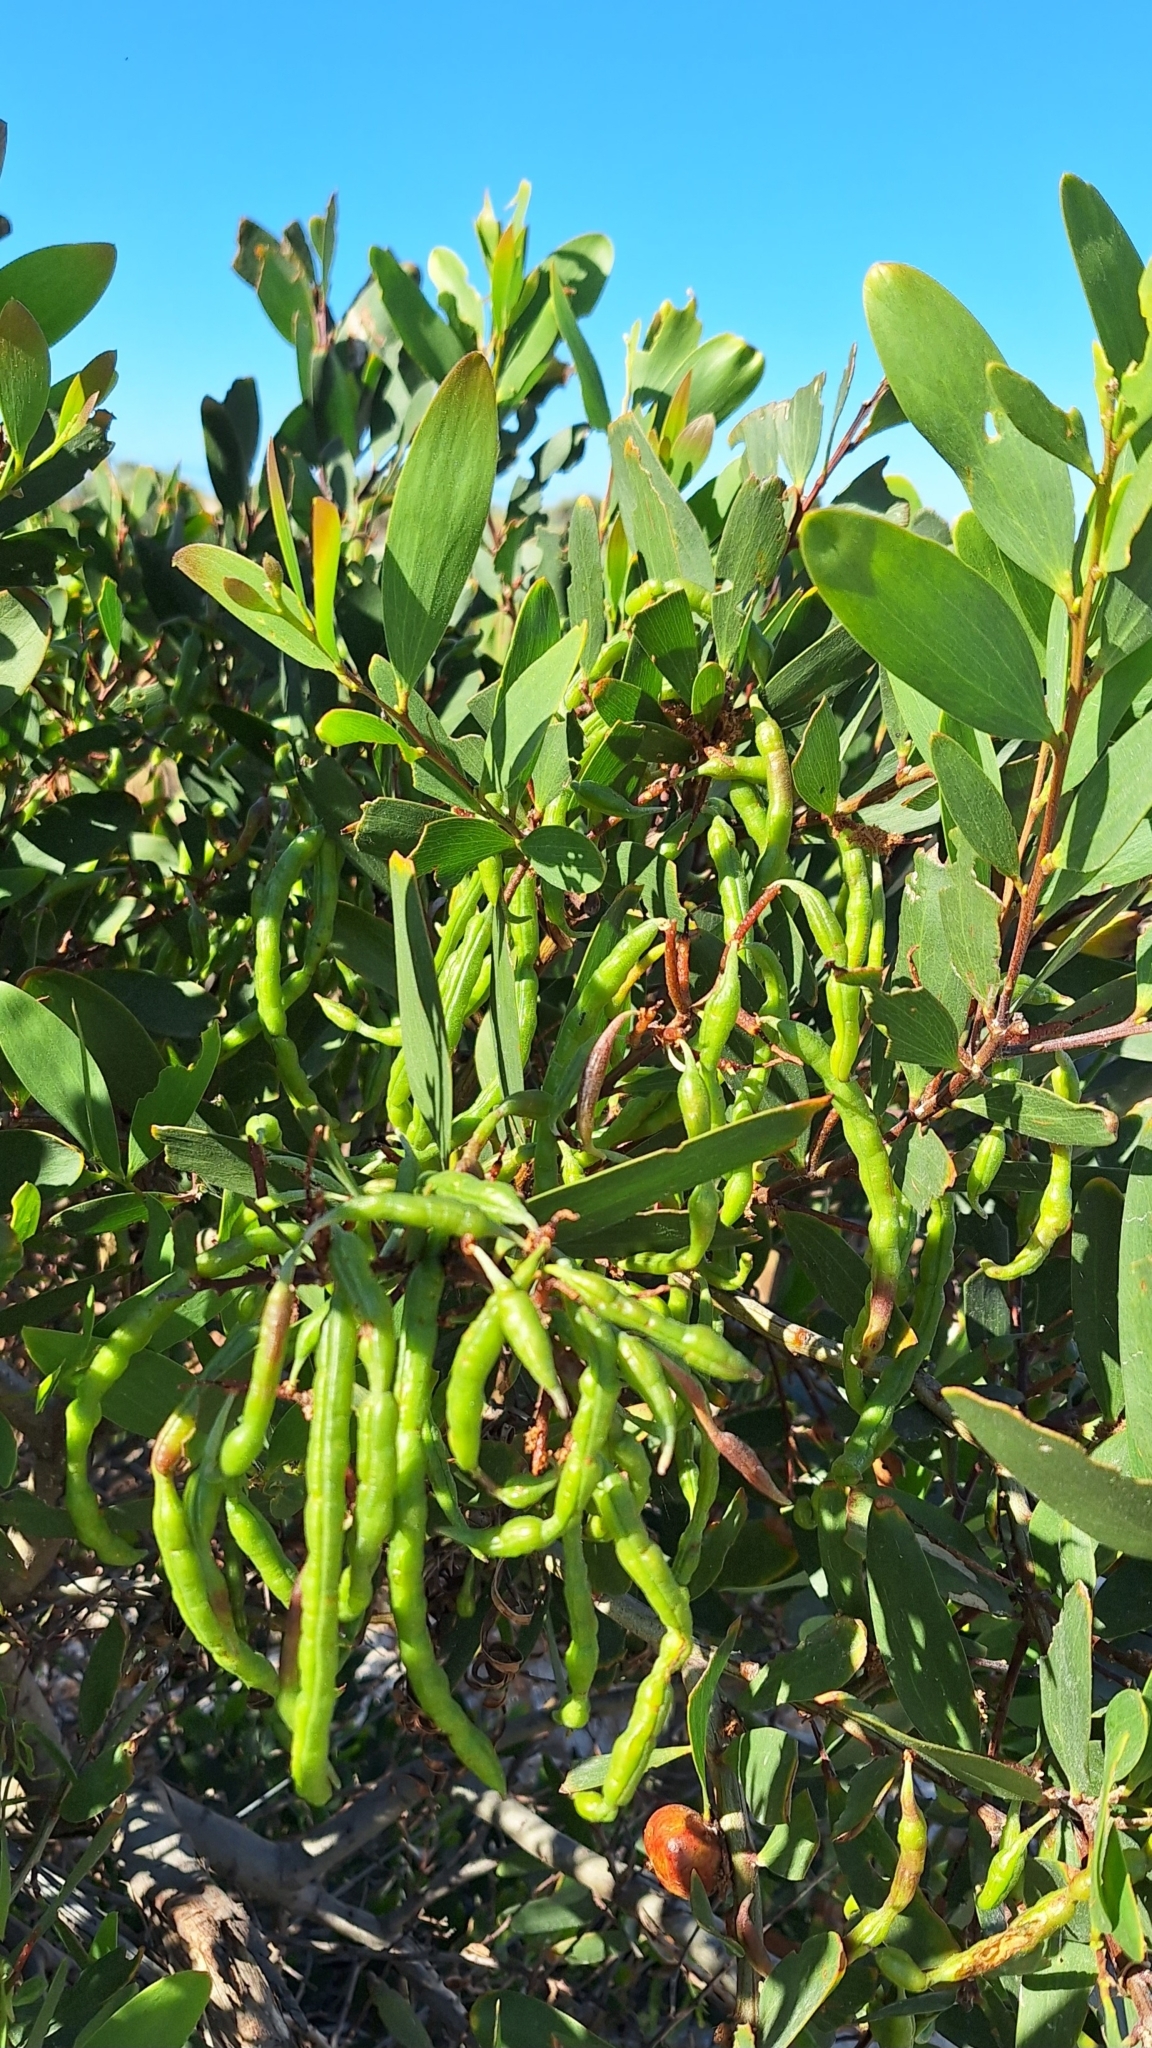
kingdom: Plantae
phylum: Tracheophyta
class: Magnoliopsida
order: Fabales
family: Fabaceae
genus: Acacia
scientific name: Acacia longifolia
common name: Sydney golden wattle
